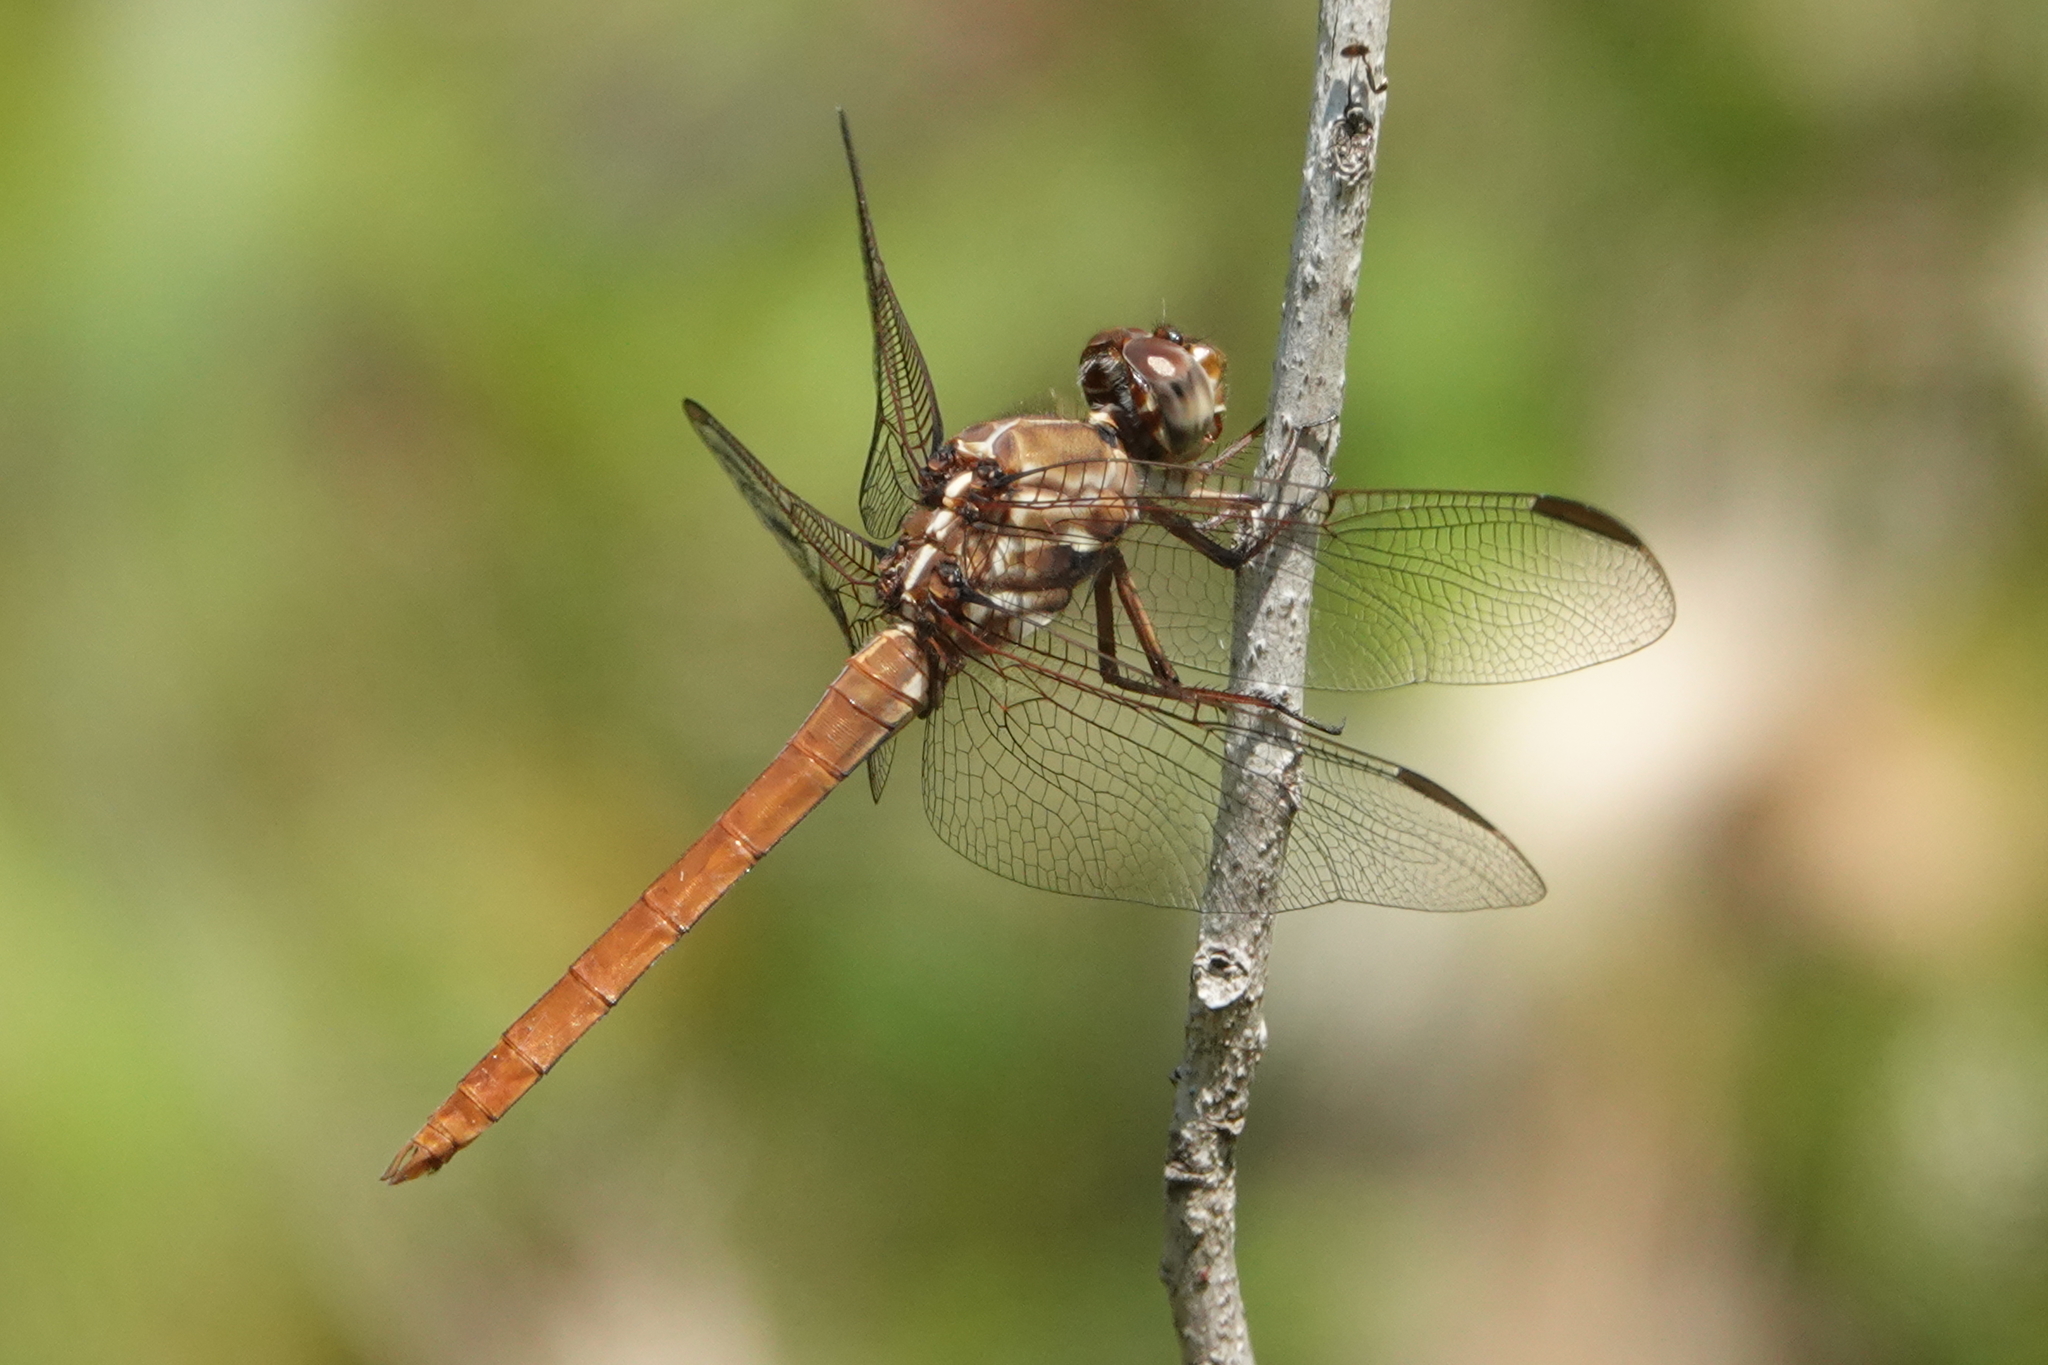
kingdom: Animalia
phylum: Arthropoda
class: Insecta
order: Odonata
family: Libellulidae
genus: Orthemis
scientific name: Orthemis ferruginea
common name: Roseate skimmer
